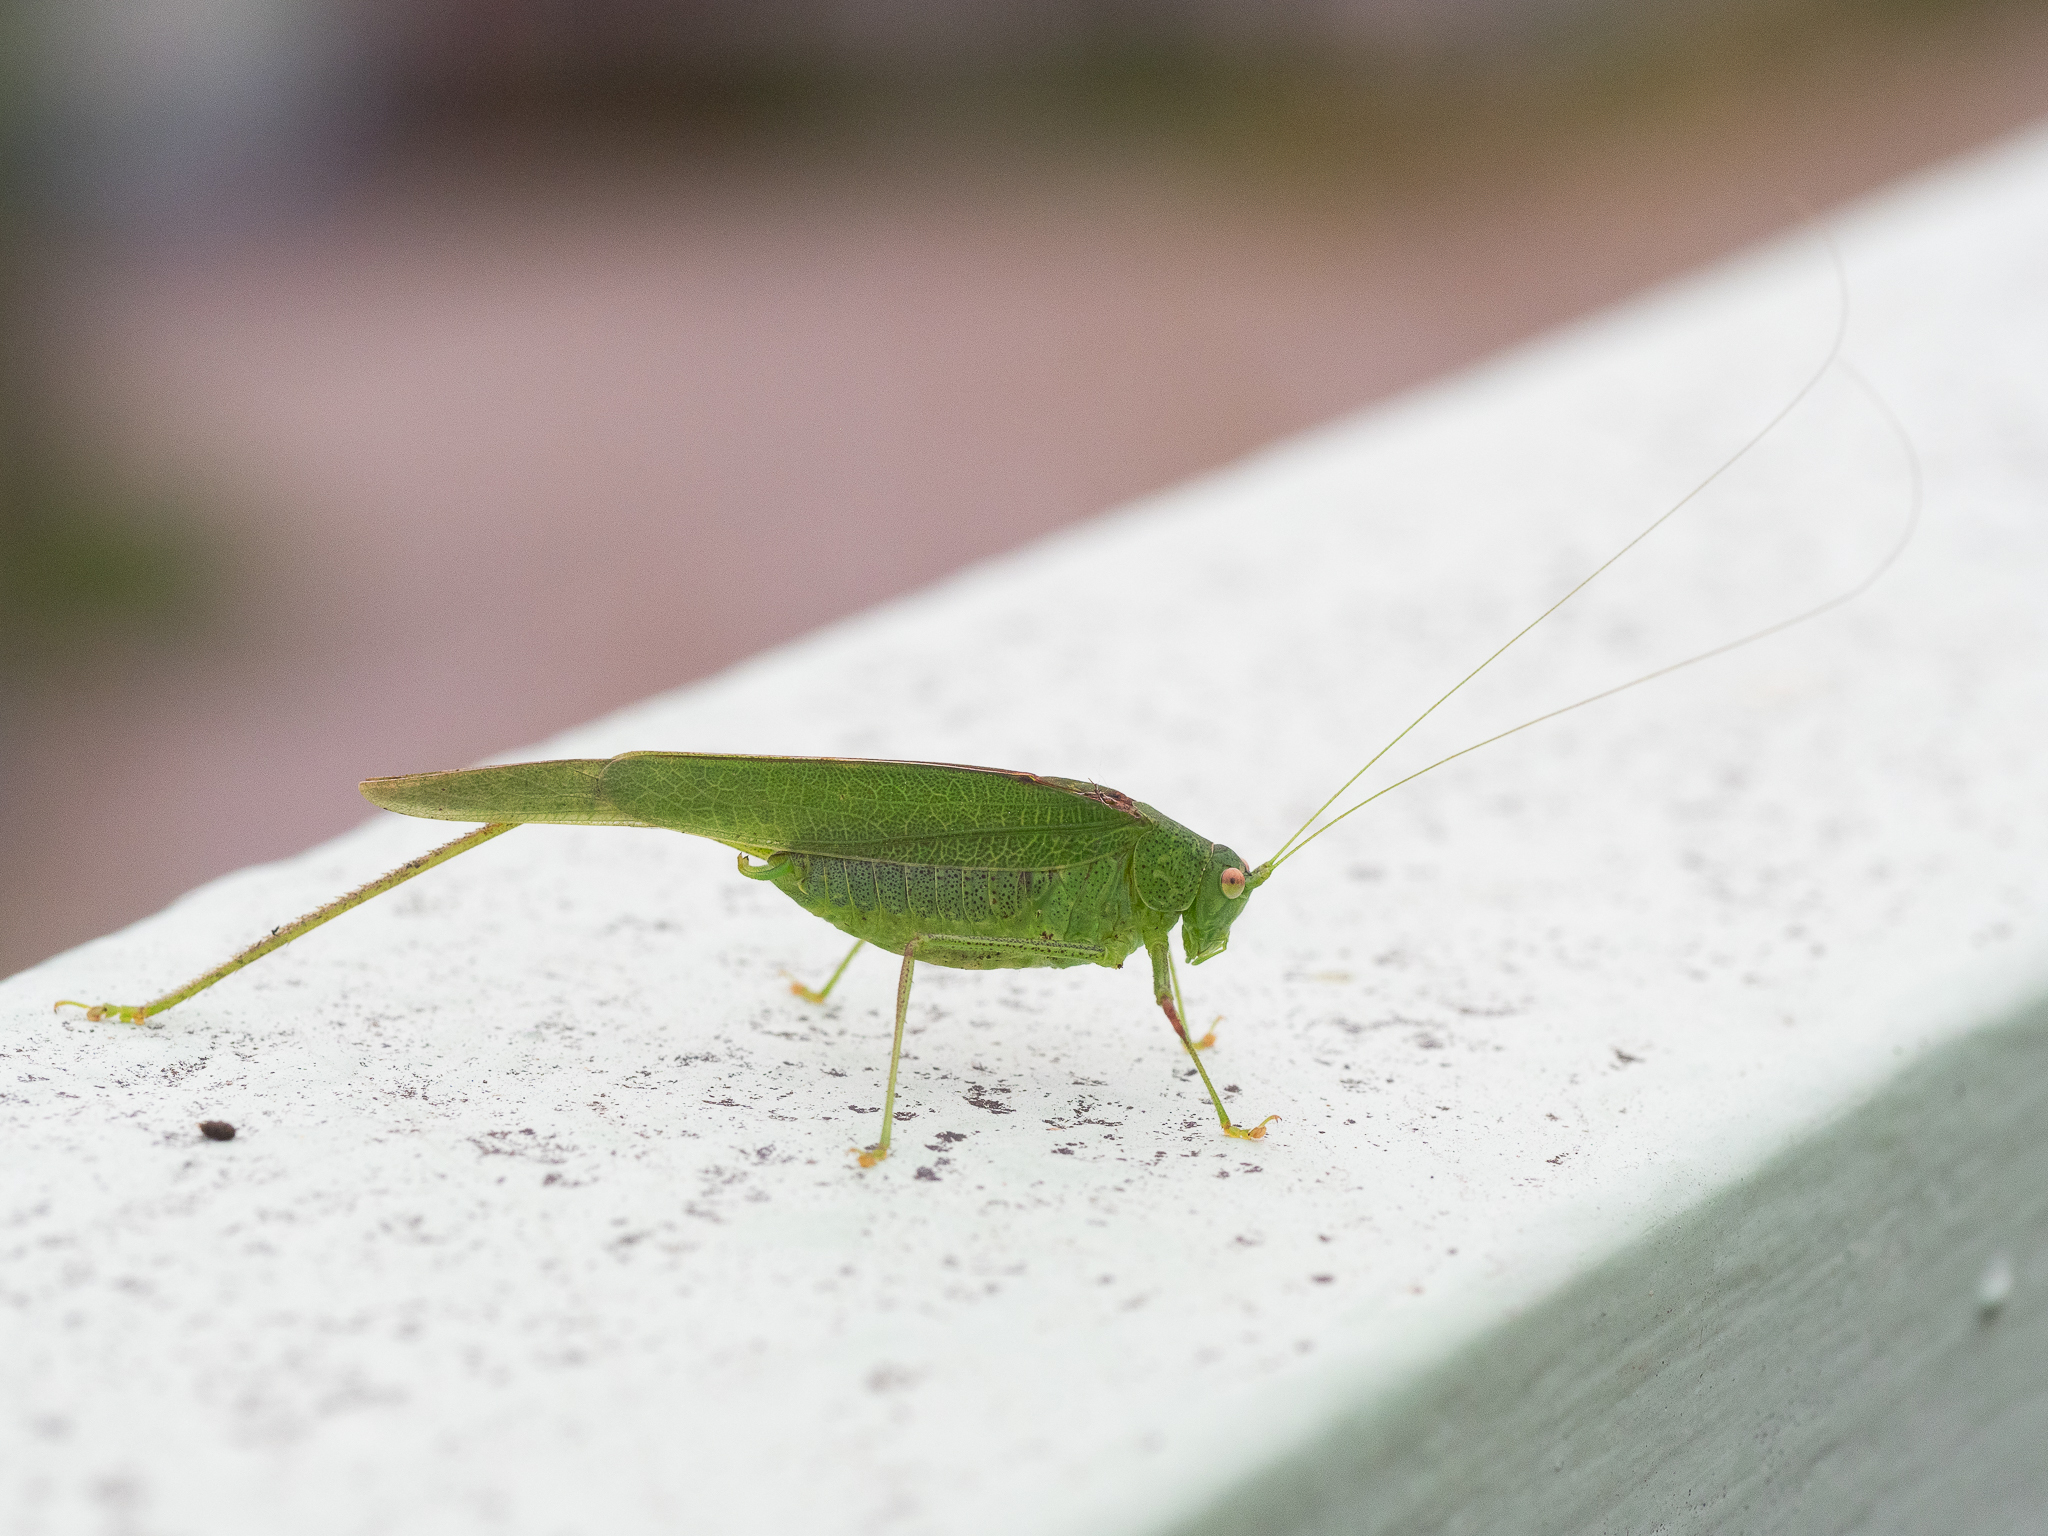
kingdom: Animalia
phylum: Arthropoda
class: Insecta
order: Orthoptera
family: Tettigoniidae
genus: Phaneroptera
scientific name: Phaneroptera nana
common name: Southern sickle bush-cricket
